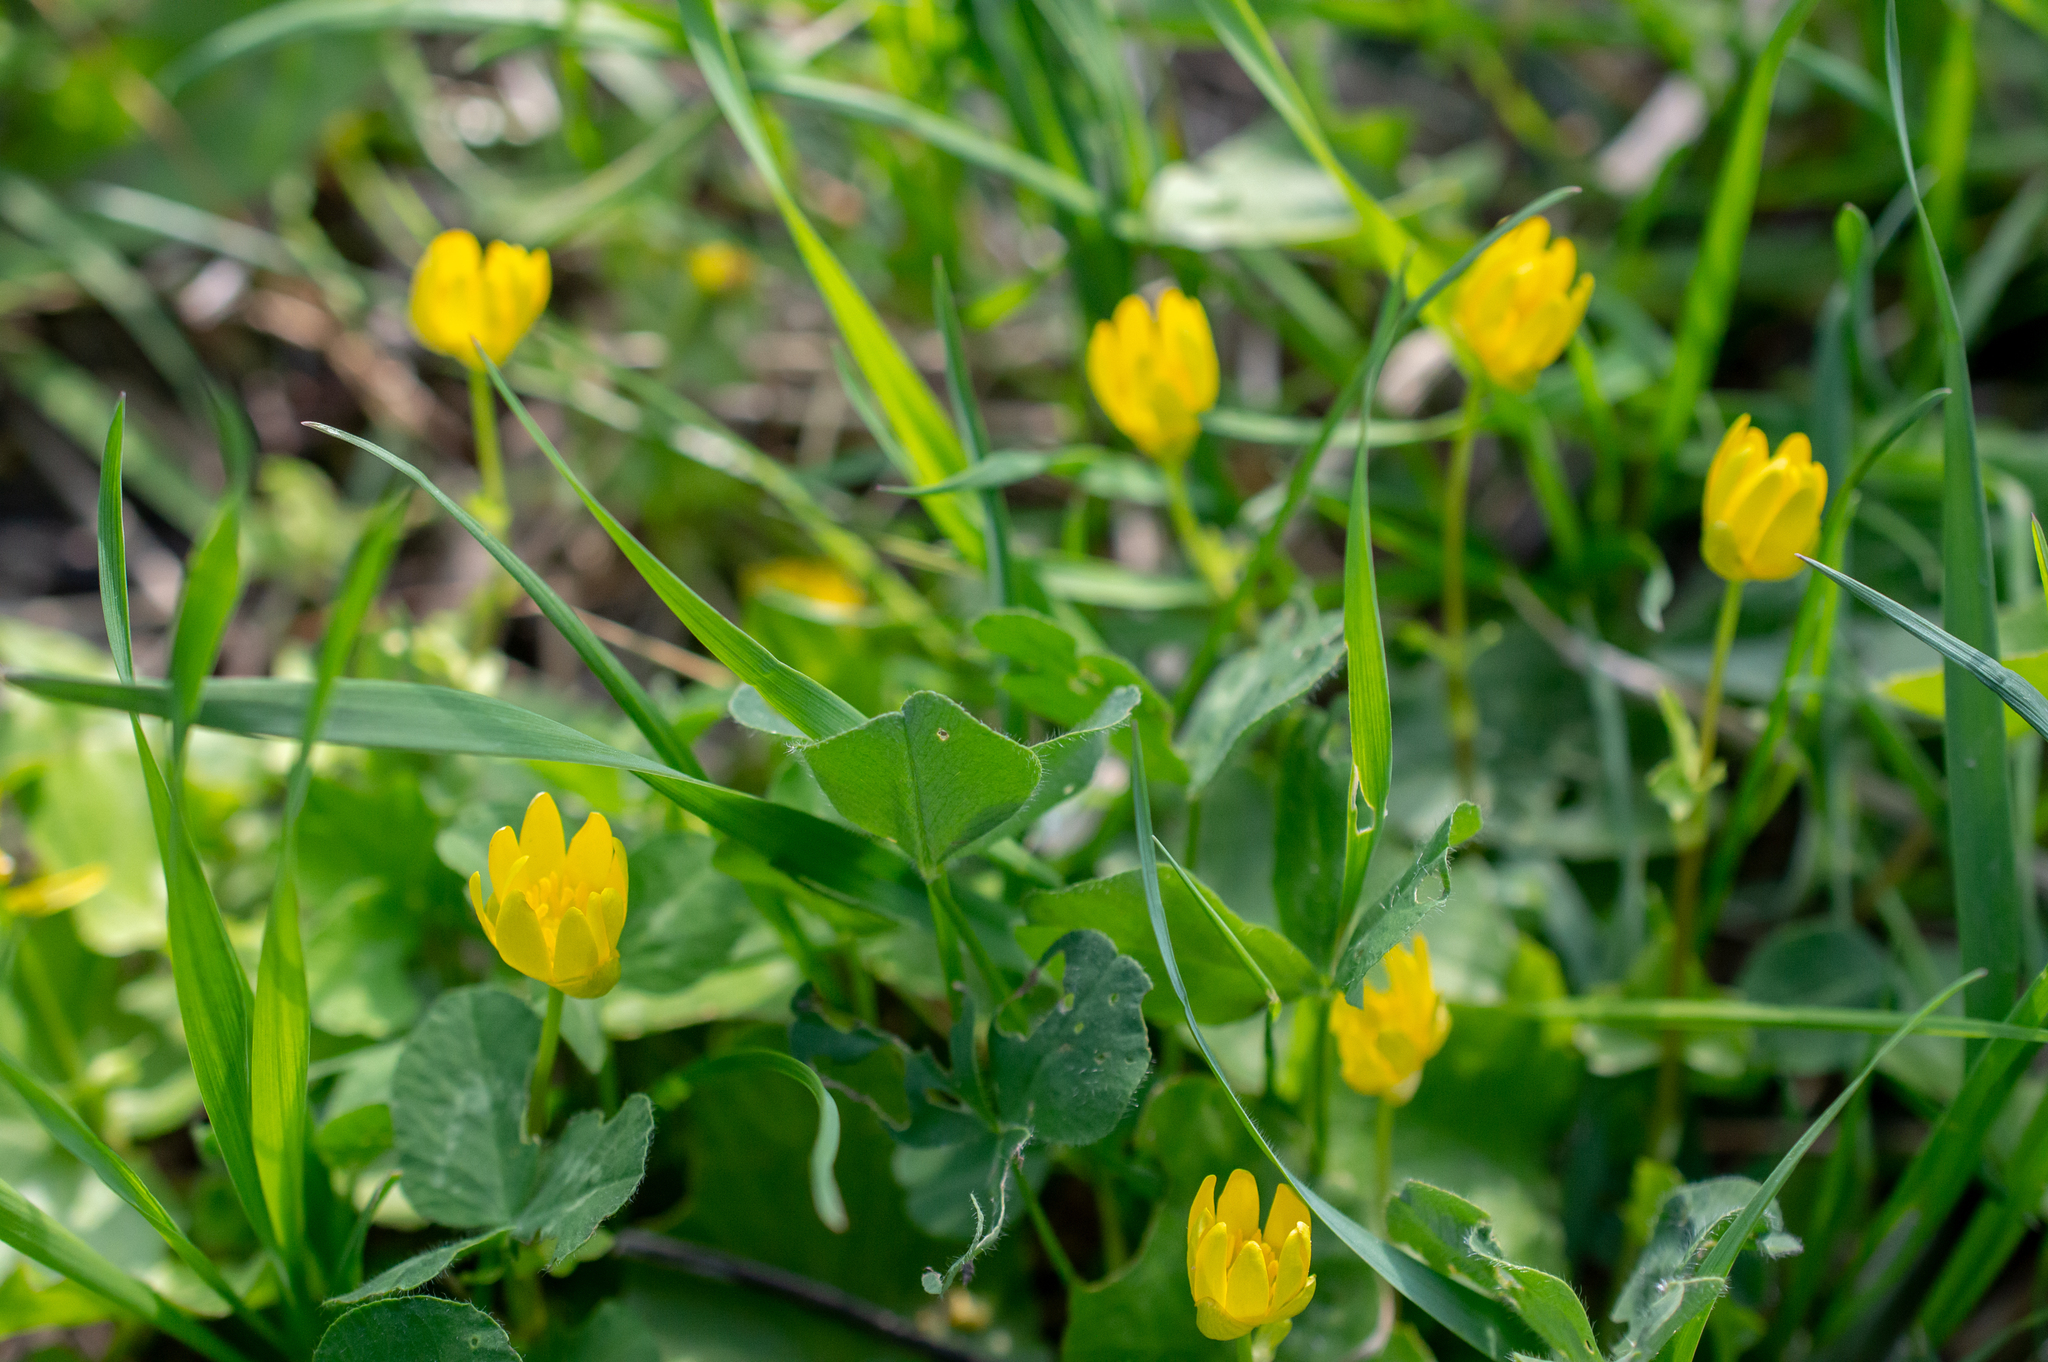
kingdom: Plantae
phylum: Tracheophyta
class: Magnoliopsida
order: Ranunculales
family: Ranunculaceae
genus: Ficaria
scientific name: Ficaria verna
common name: Lesser celandine
